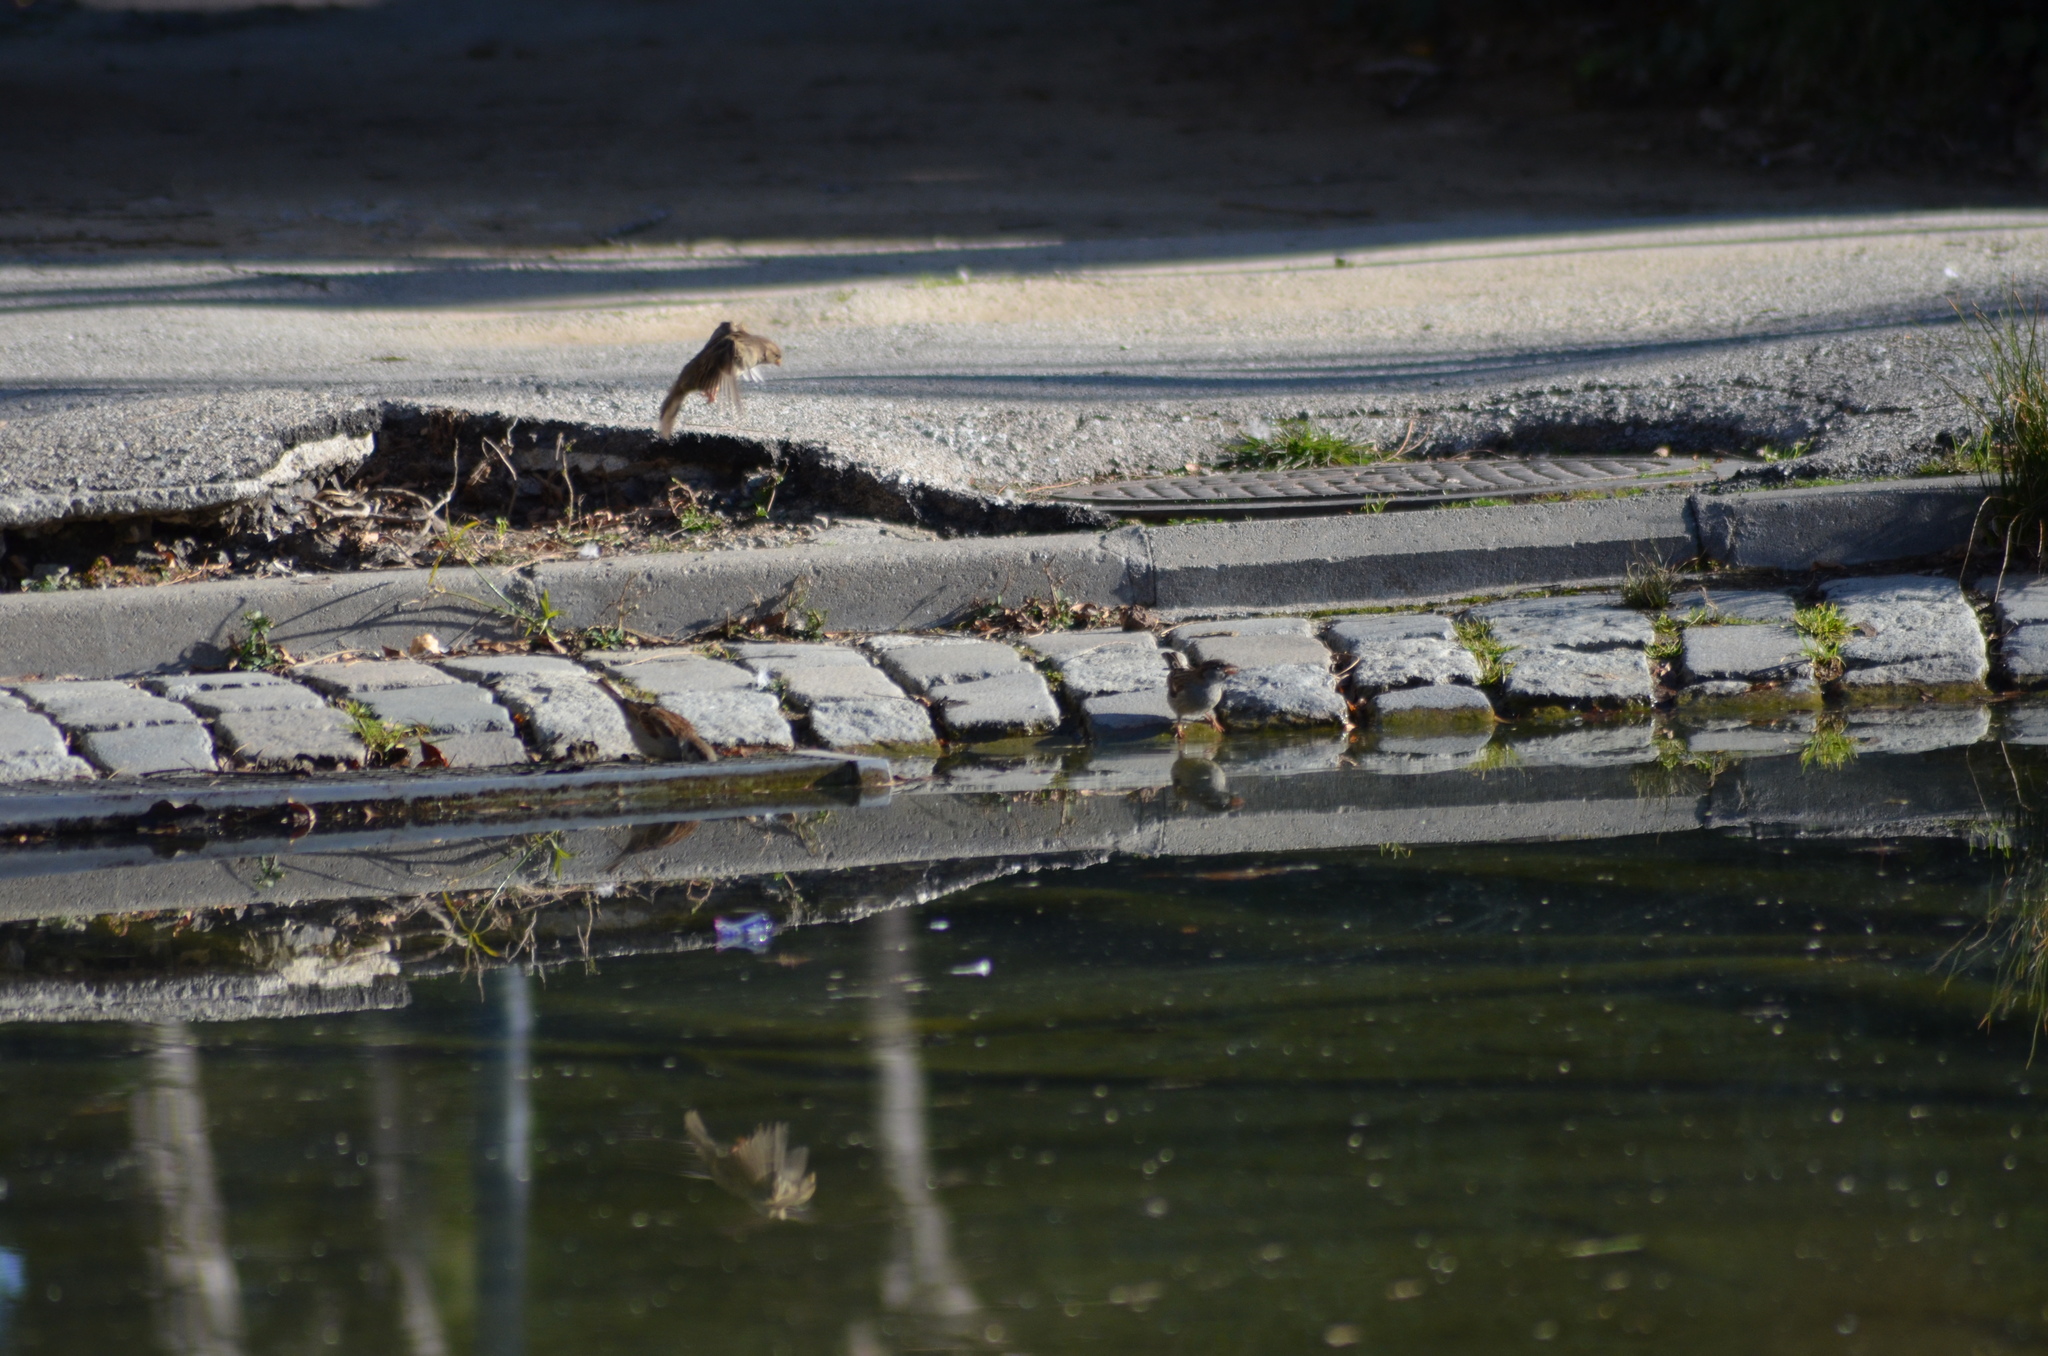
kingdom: Animalia
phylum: Chordata
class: Aves
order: Passeriformes
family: Passeridae
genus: Passer
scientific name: Passer domesticus
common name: House sparrow
